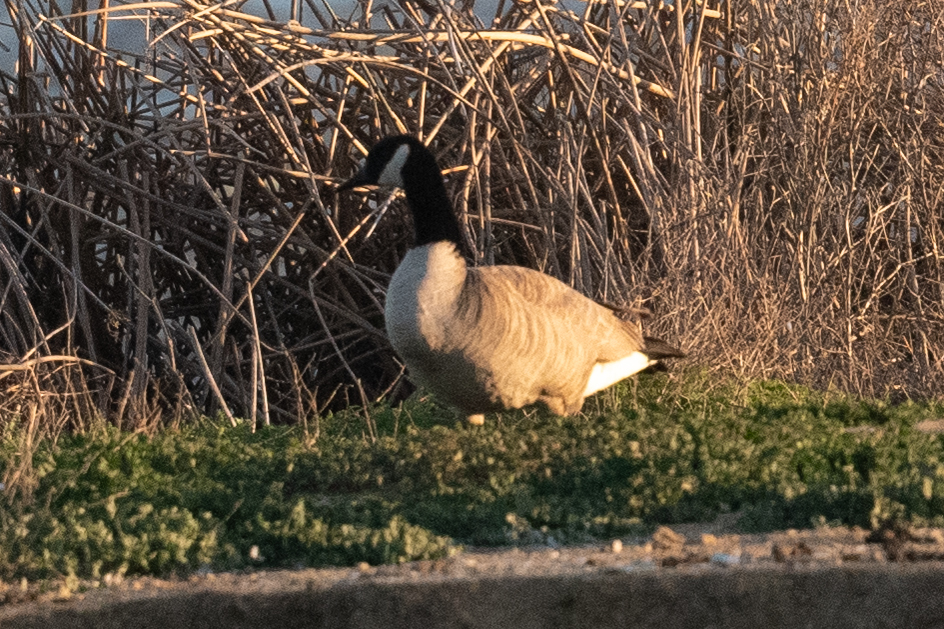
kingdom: Animalia
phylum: Chordata
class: Aves
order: Anseriformes
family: Anatidae
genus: Branta
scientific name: Branta canadensis
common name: Canada goose
